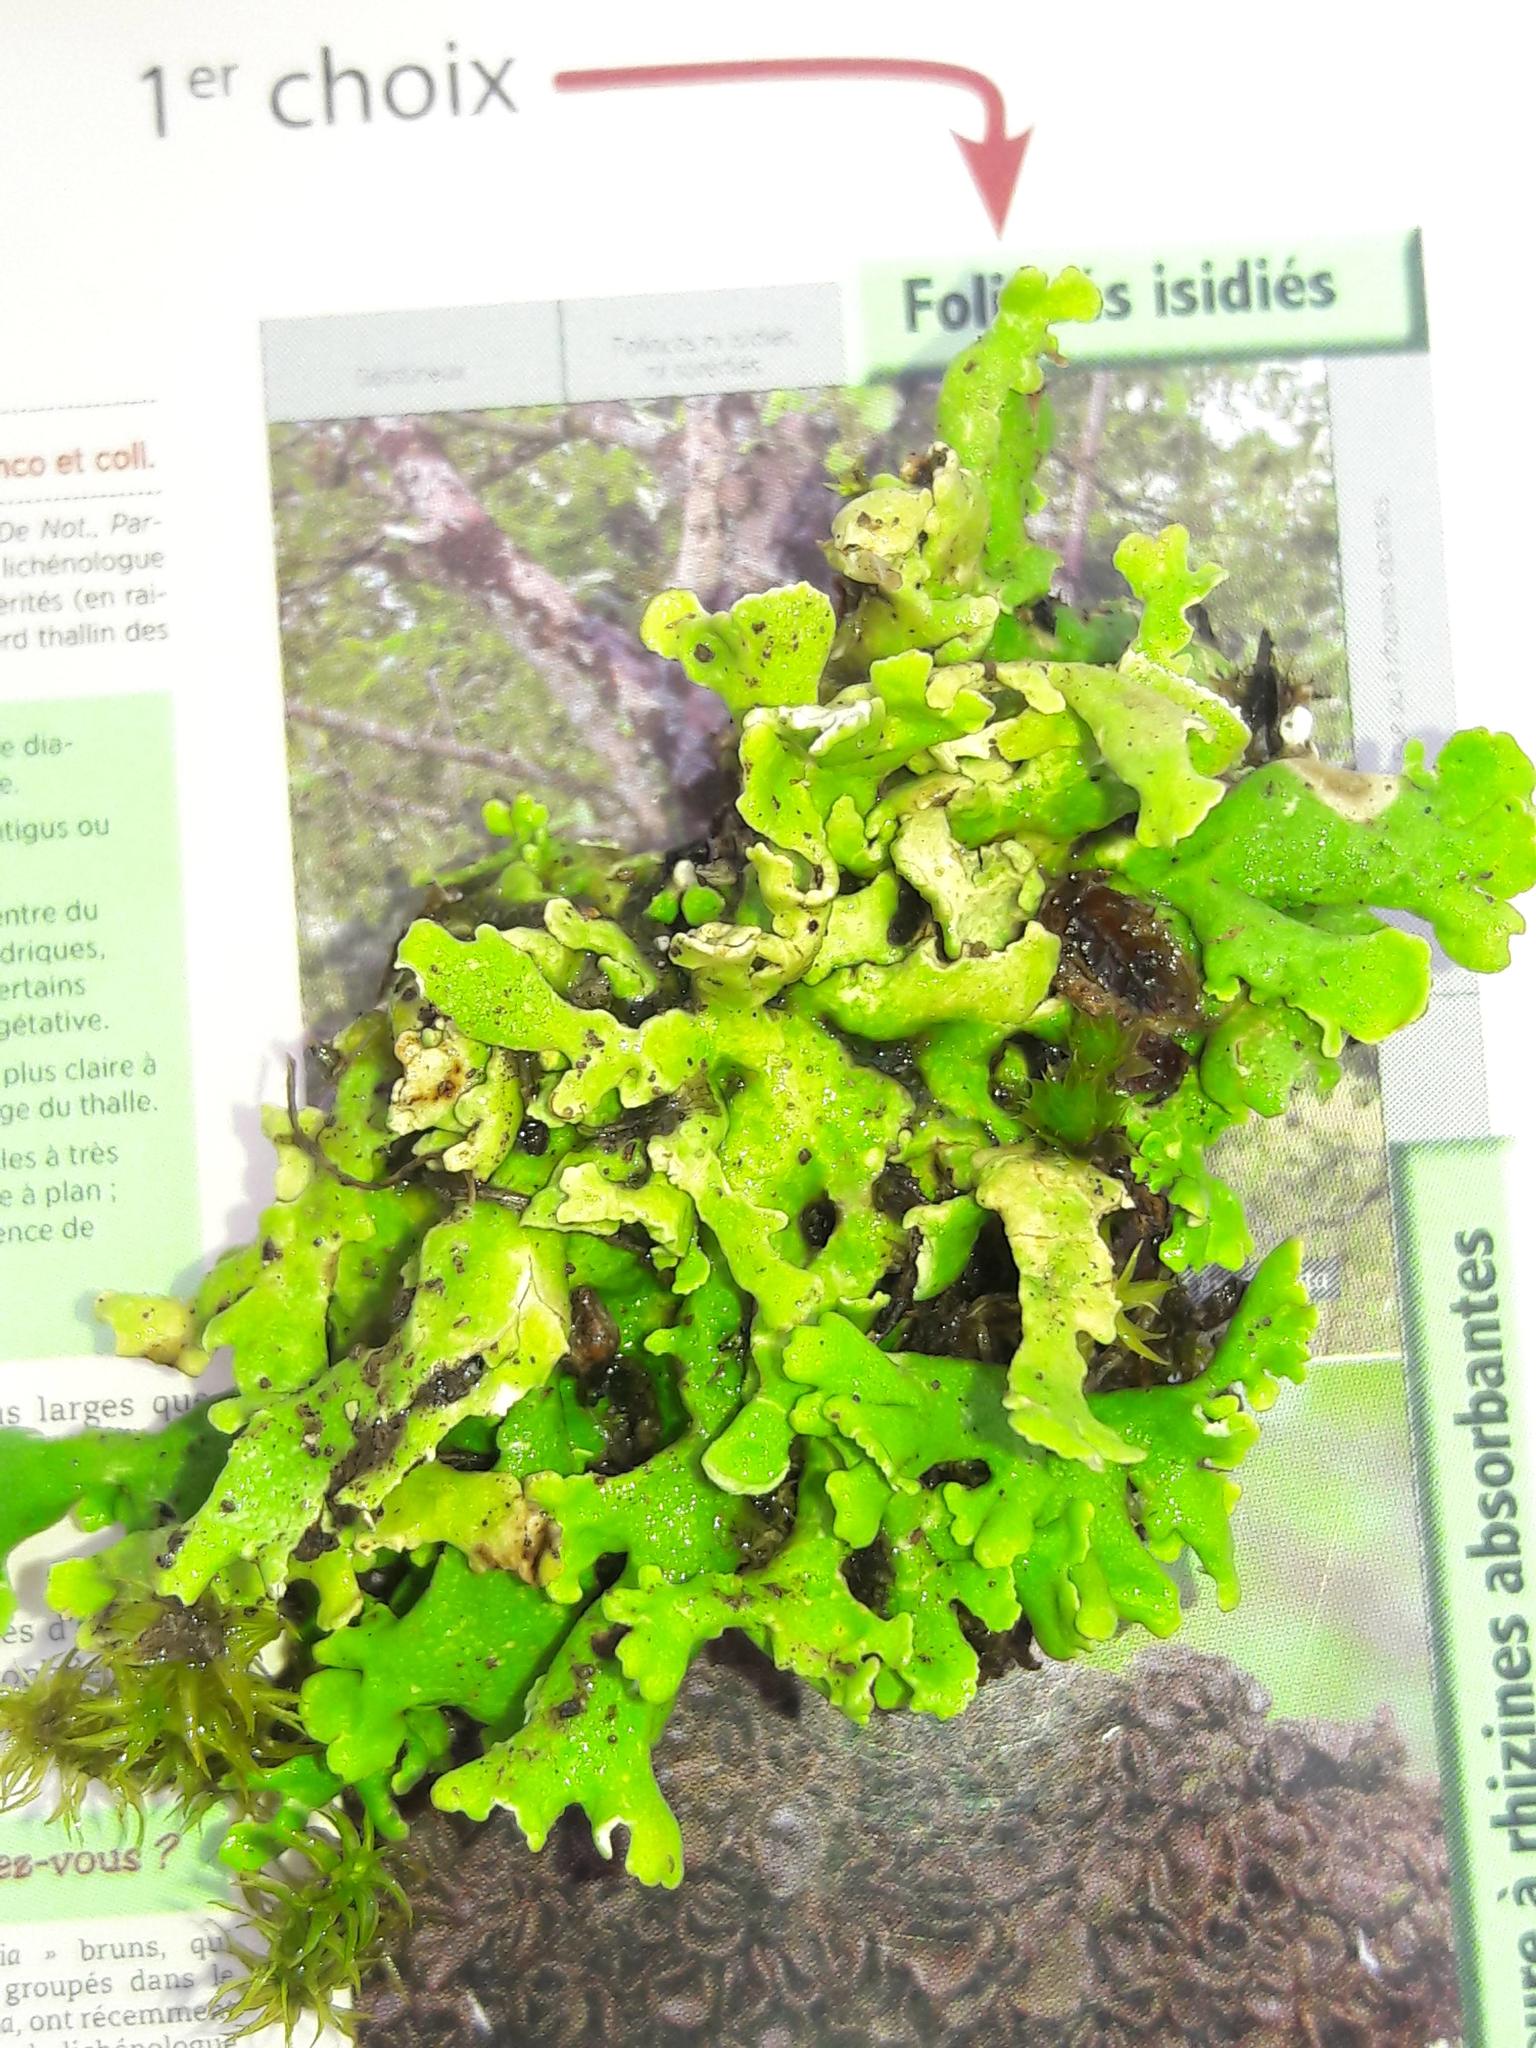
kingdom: Fungi
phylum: Ascomycota
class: Lecanoromycetes
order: Lecanorales
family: Cladoniaceae
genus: Cladonia
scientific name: Cladonia foliacea
